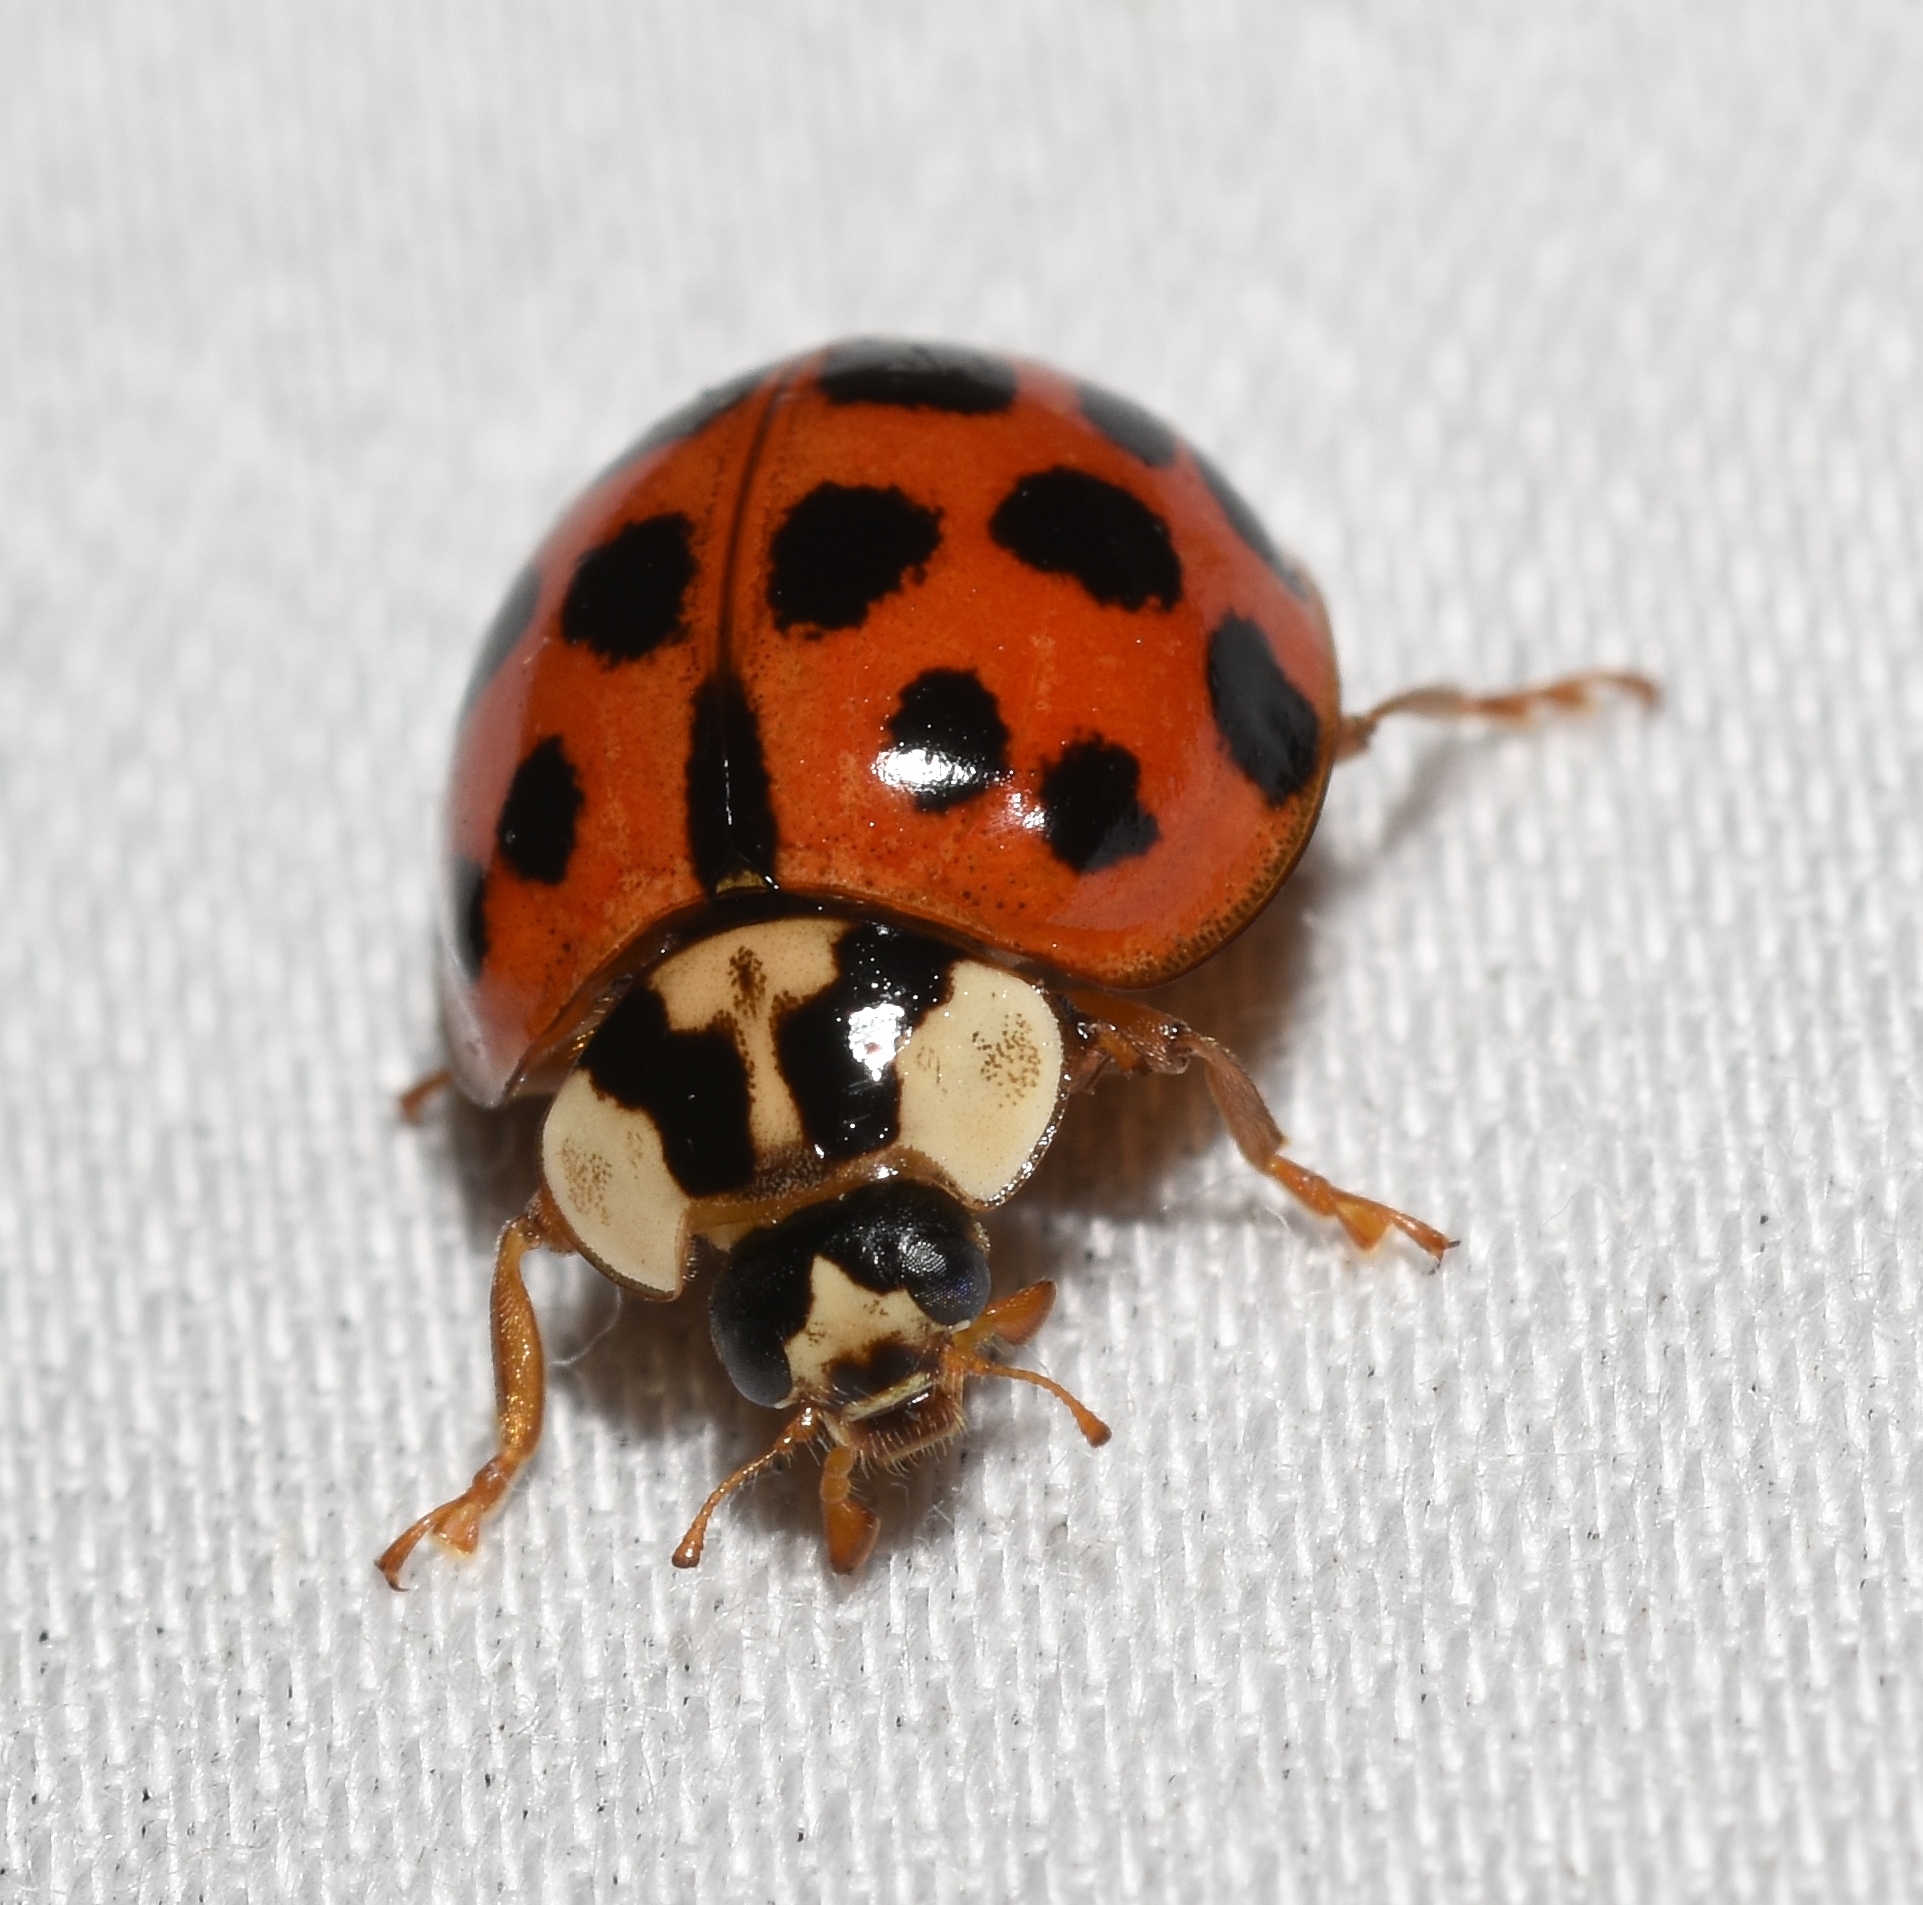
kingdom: Animalia
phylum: Arthropoda
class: Insecta
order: Coleoptera
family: Coccinellidae
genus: Harmonia
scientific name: Harmonia axyridis
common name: Harlequin ladybird
